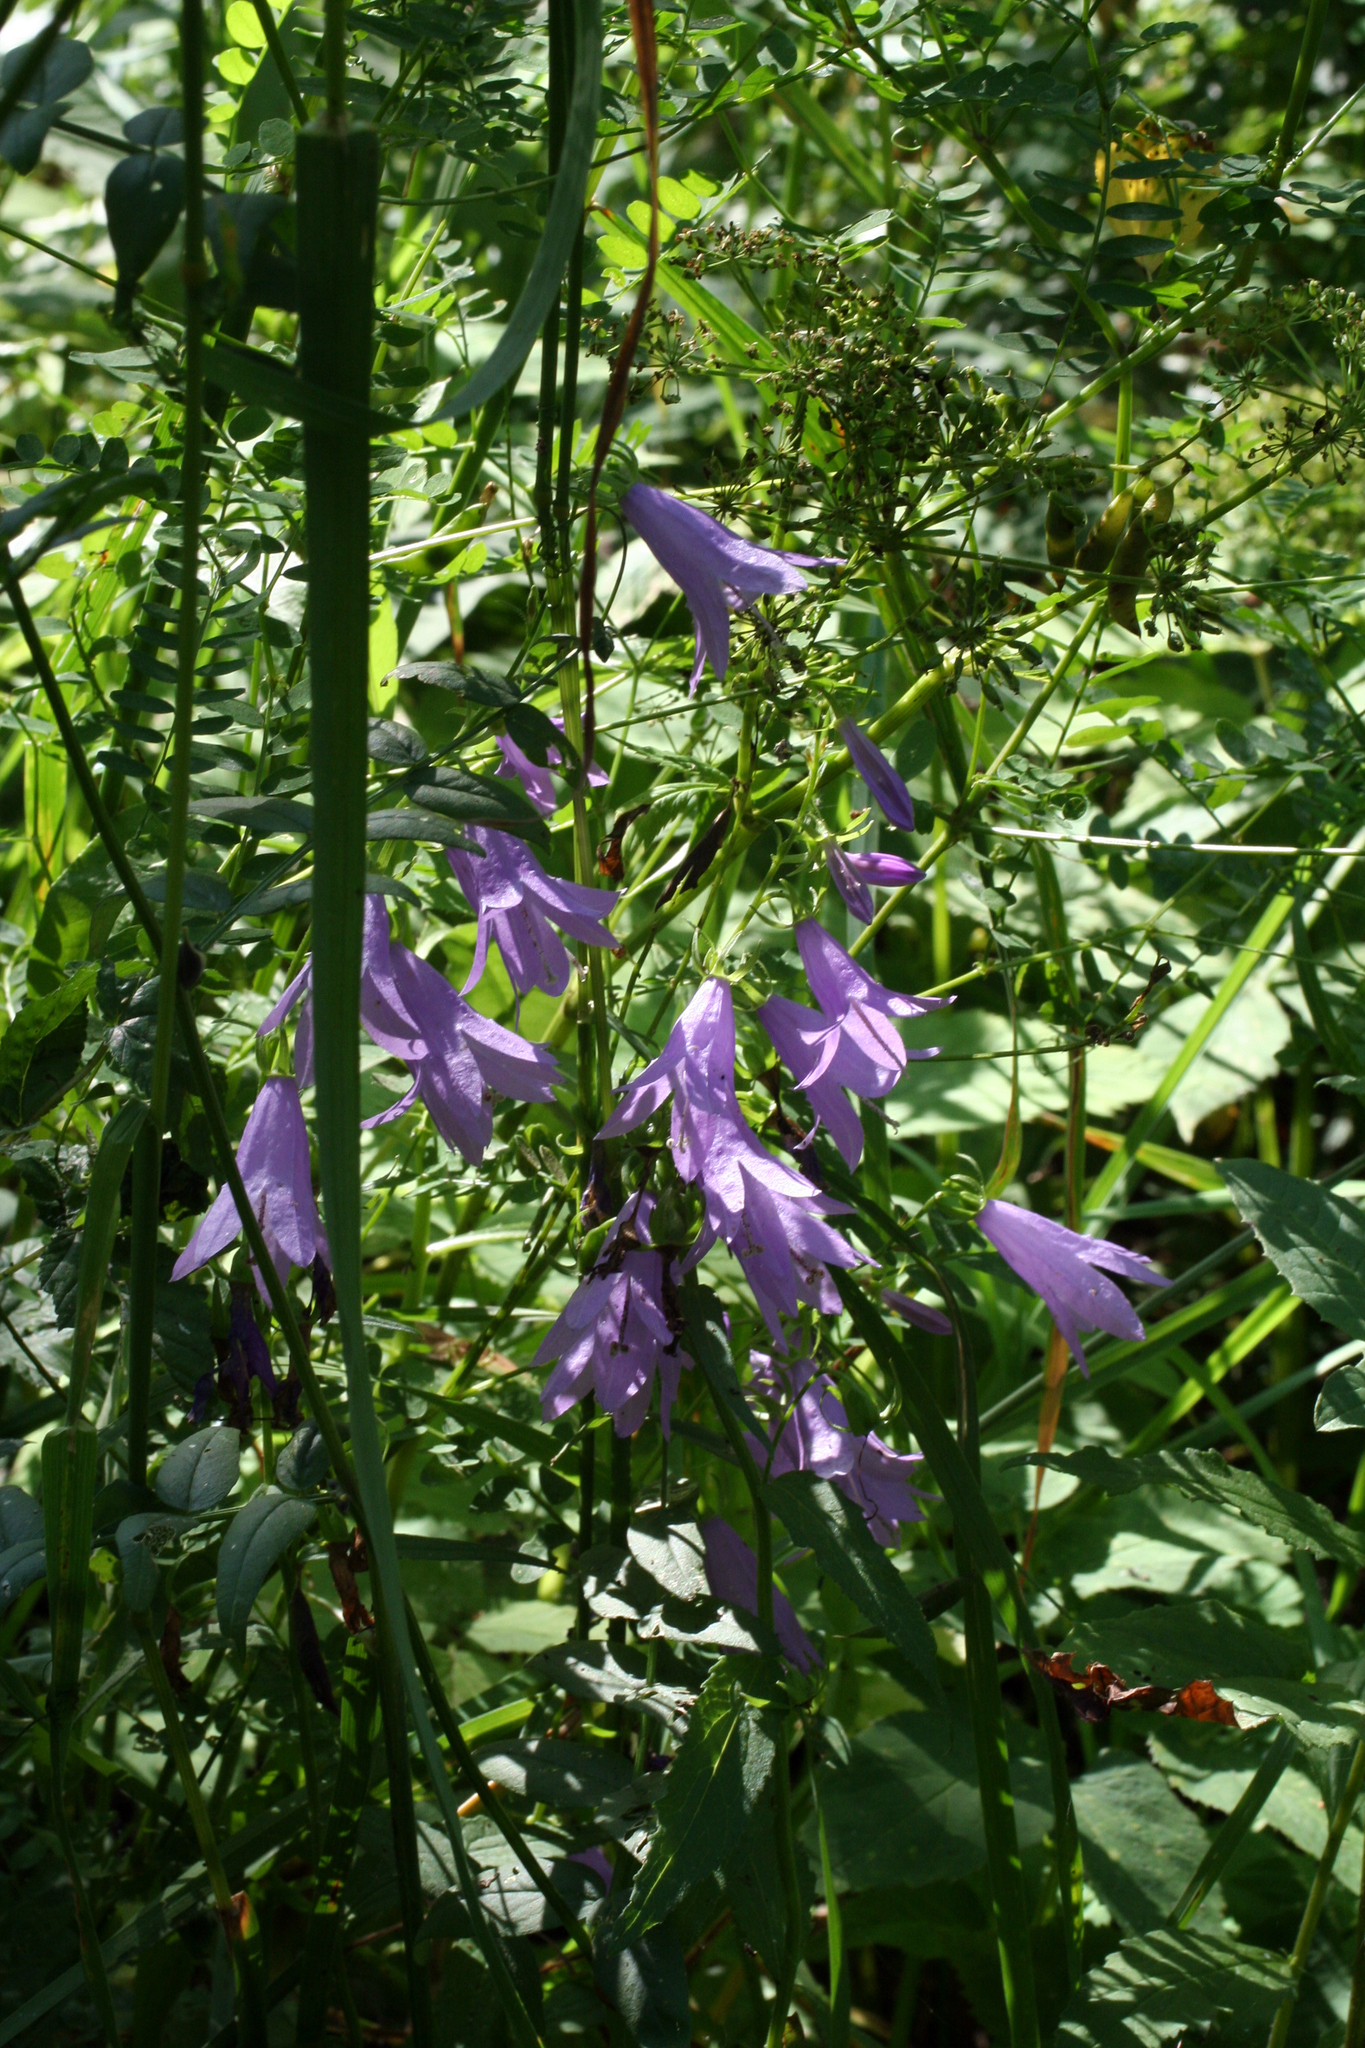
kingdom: Plantae
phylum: Tracheophyta
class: Magnoliopsida
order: Asterales
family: Campanulaceae
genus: Campanula
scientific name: Campanula rapunculoides
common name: Creeping bellflower
